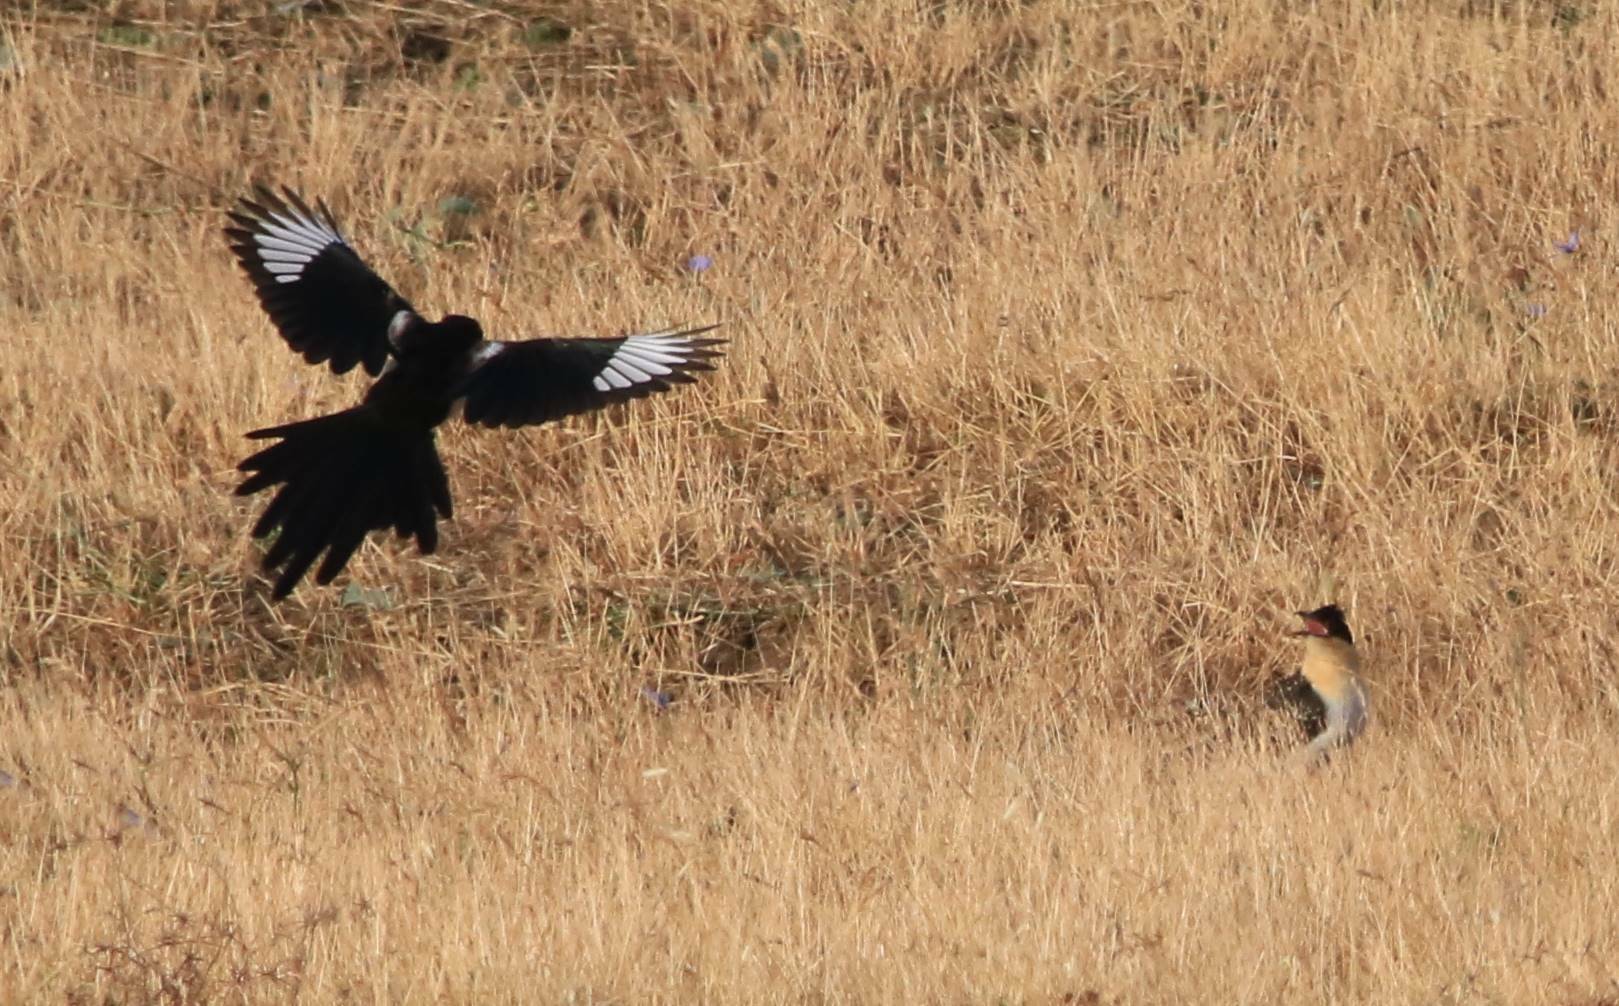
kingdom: Animalia
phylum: Chordata
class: Aves
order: Passeriformes
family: Corvidae
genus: Pica
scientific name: Pica mauritanica
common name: Maghreb magpie
